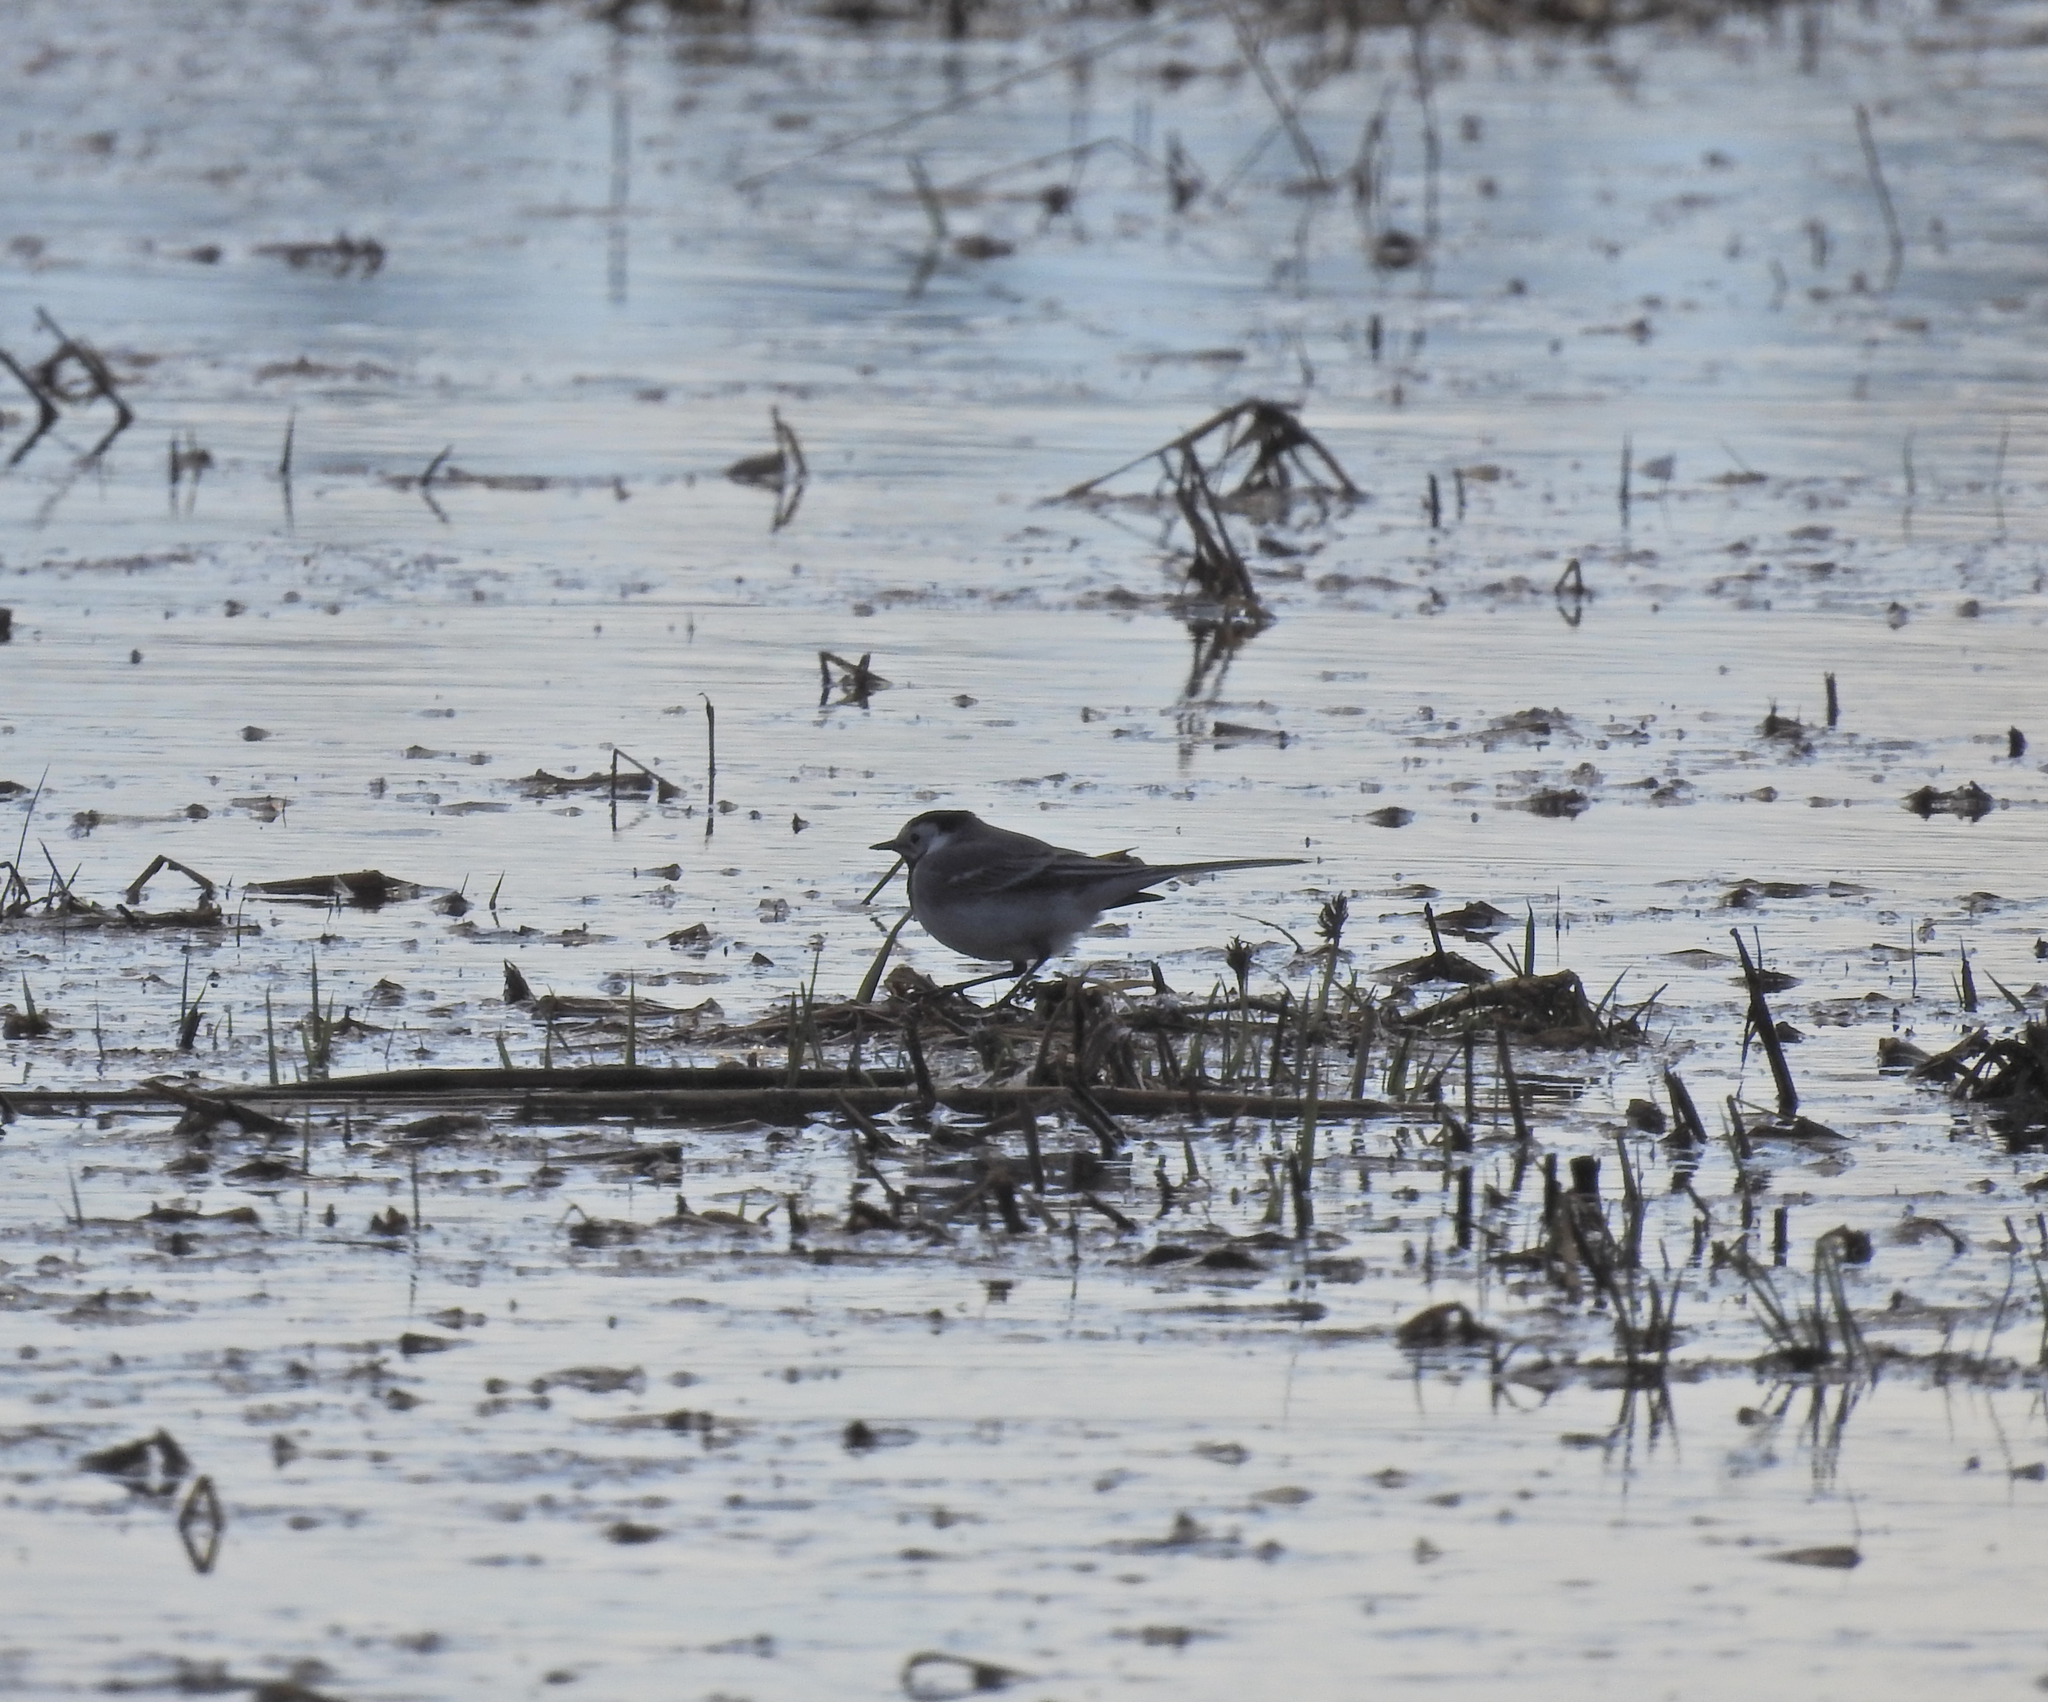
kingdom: Animalia
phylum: Chordata
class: Aves
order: Passeriformes
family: Motacillidae
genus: Motacilla
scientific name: Motacilla alba
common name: White wagtail
